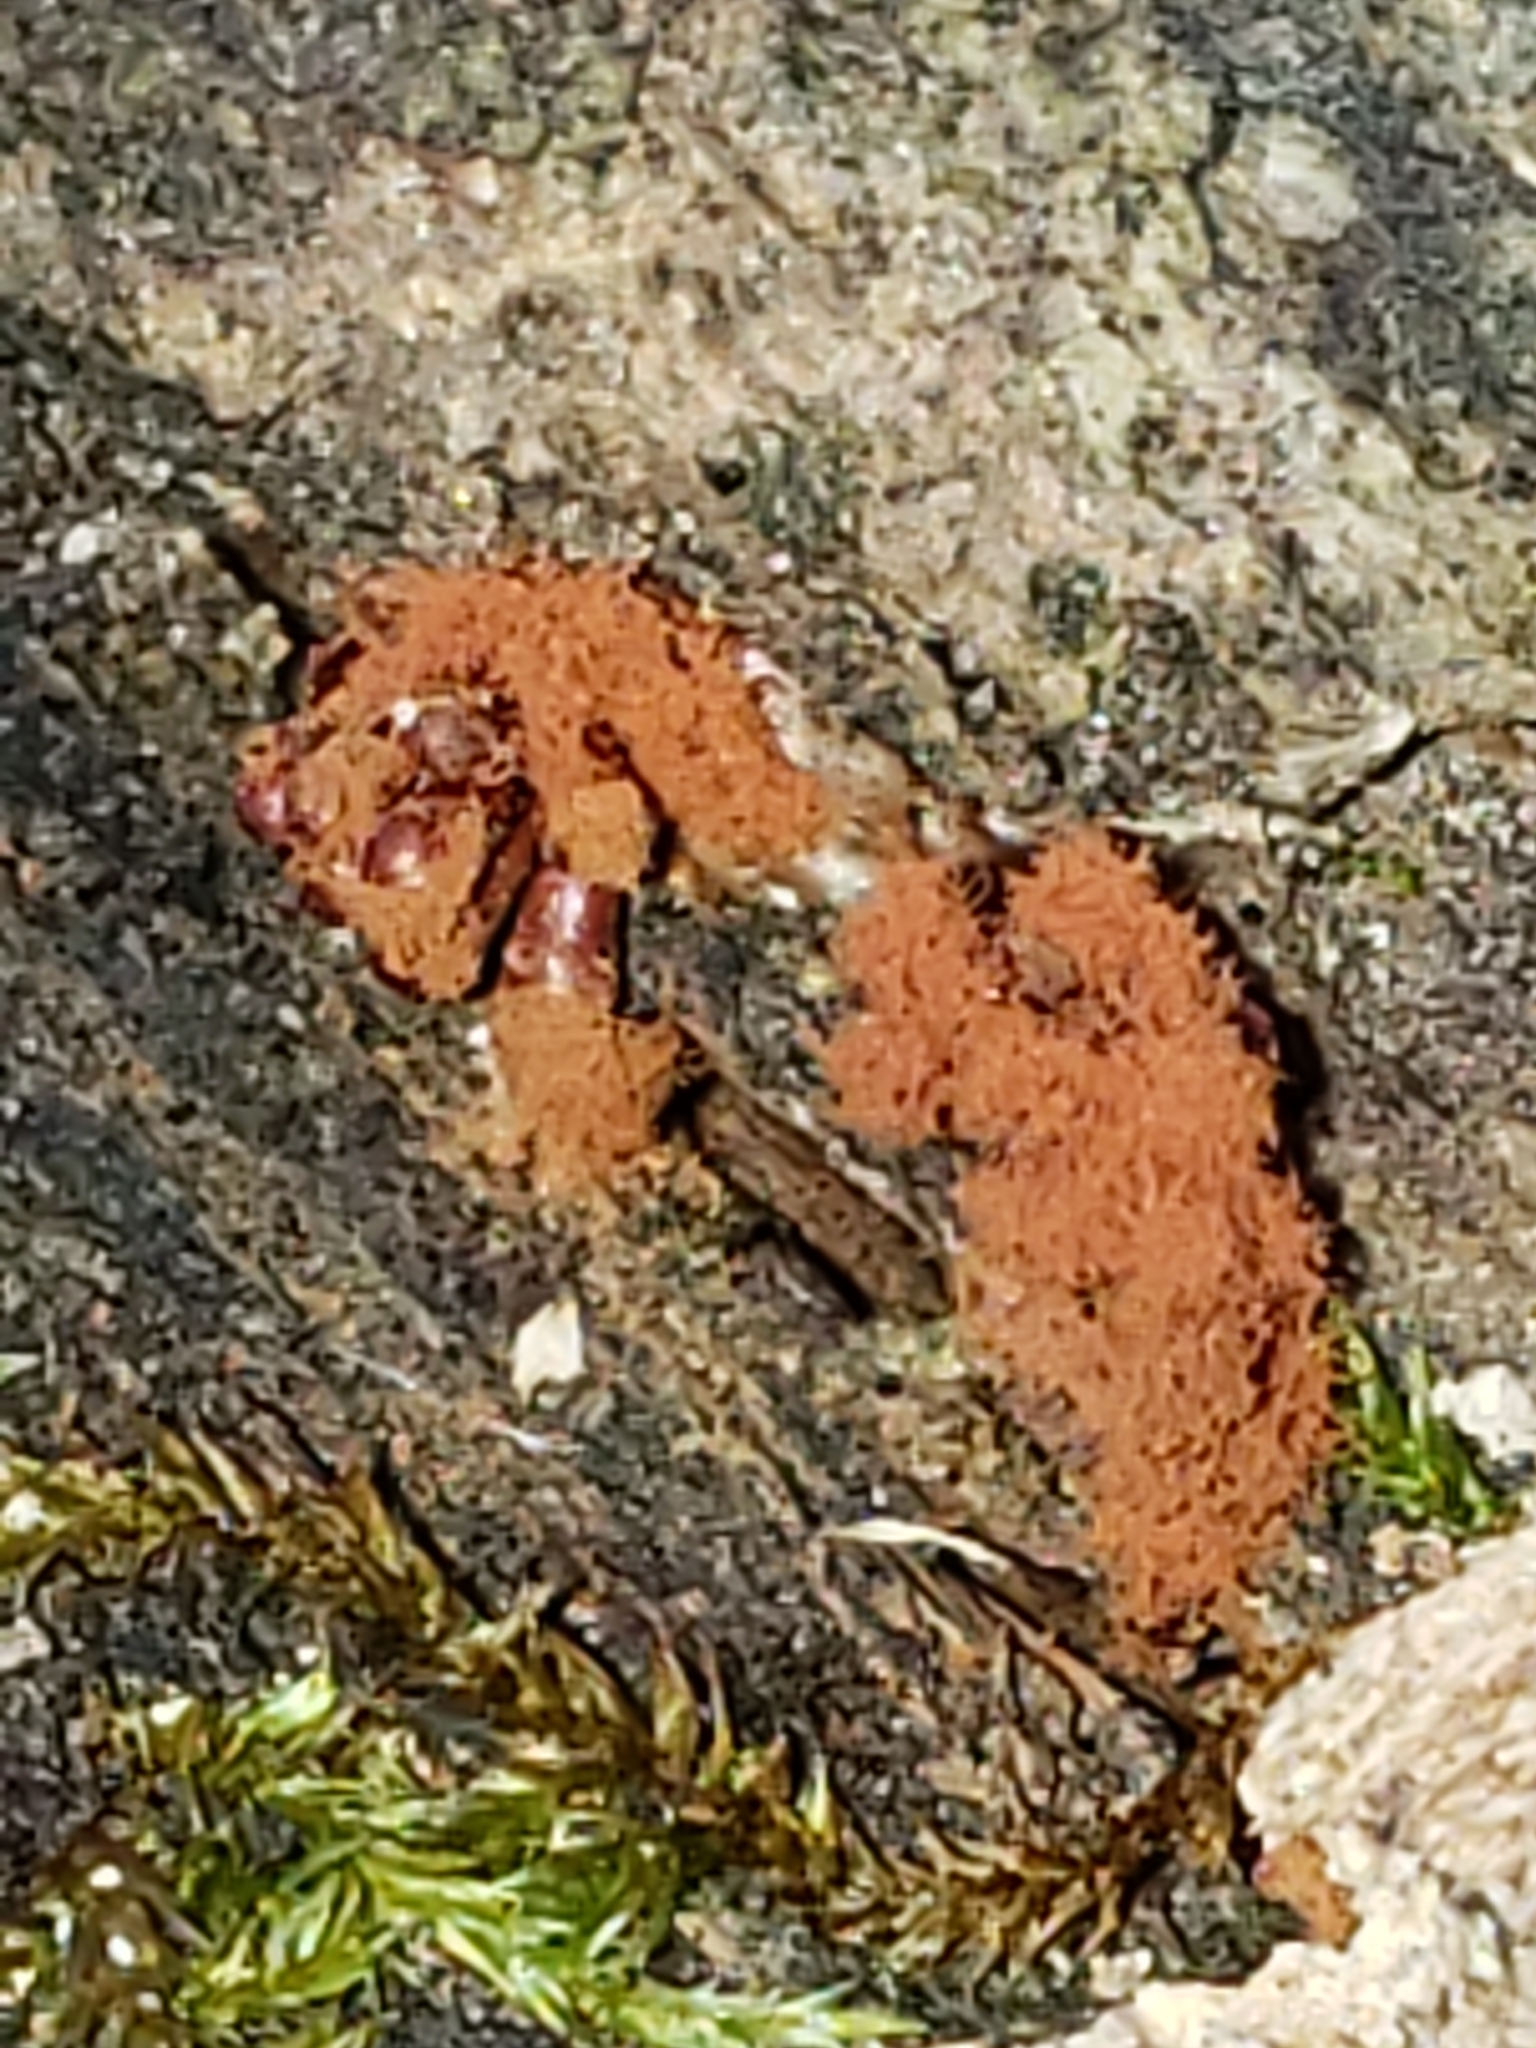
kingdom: Protozoa
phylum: Mycetozoa
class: Myxomycetes
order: Trichiales
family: Trichiaceae
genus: Metatrichia
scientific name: Metatrichia vesparia
